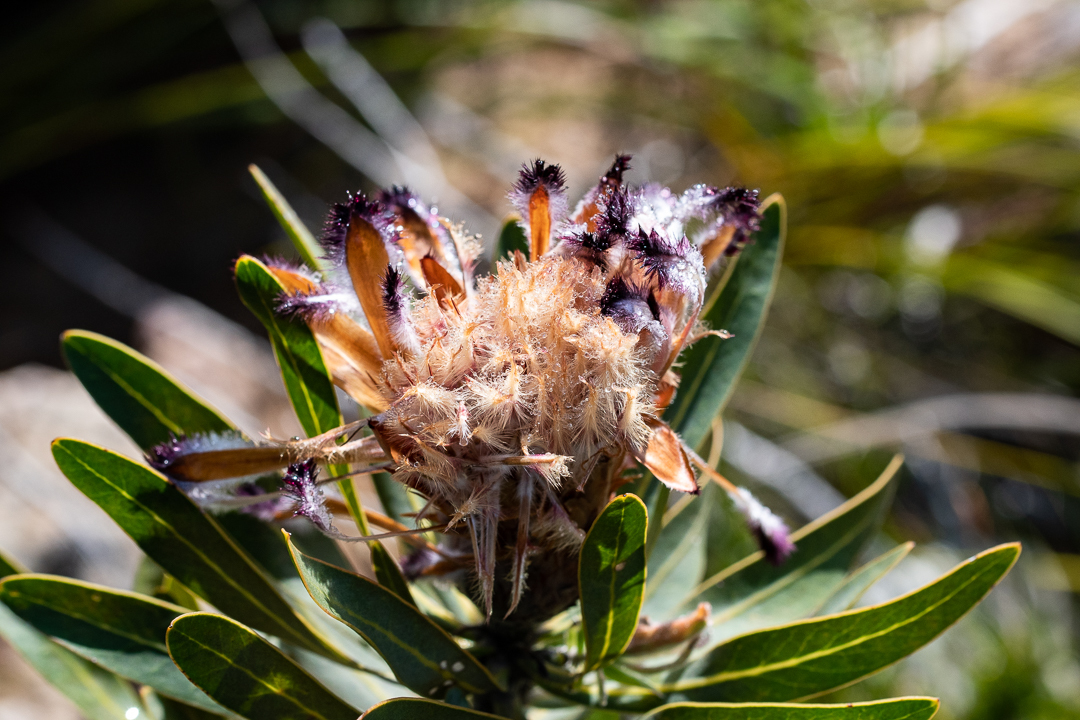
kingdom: Plantae
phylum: Tracheophyta
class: Magnoliopsida
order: Proteales
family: Proteaceae
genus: Protea
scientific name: Protea neriifolia
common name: Blue sugarbush
